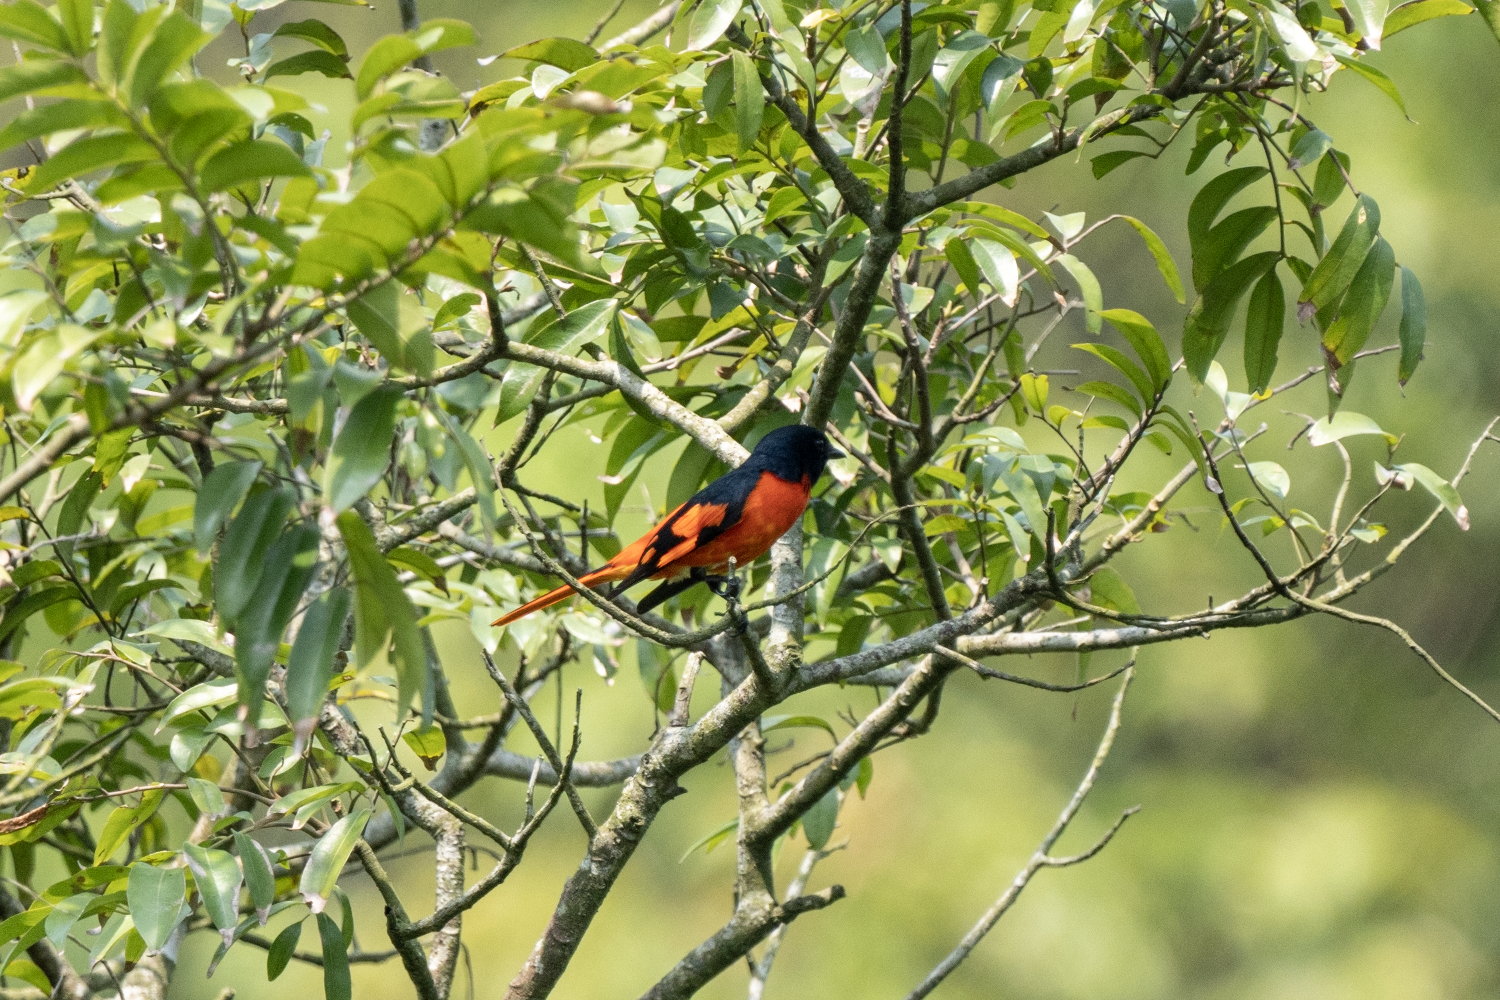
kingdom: Animalia
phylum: Chordata
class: Aves
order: Passeriformes
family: Campephagidae
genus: Pericrocotus
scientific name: Pericrocotus speciosus
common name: Scarlet minivet
